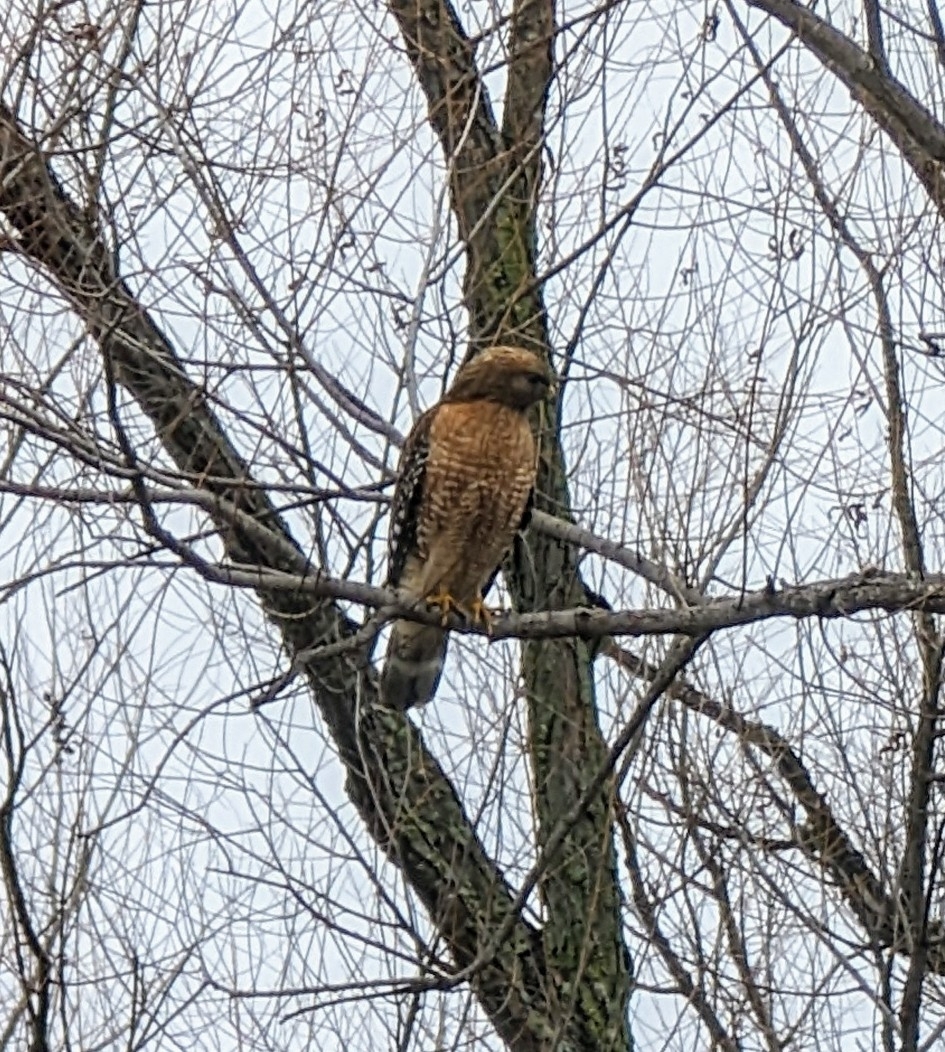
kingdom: Animalia
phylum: Chordata
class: Aves
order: Accipitriformes
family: Accipitridae
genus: Buteo
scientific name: Buteo lineatus
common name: Red-shouldered hawk
